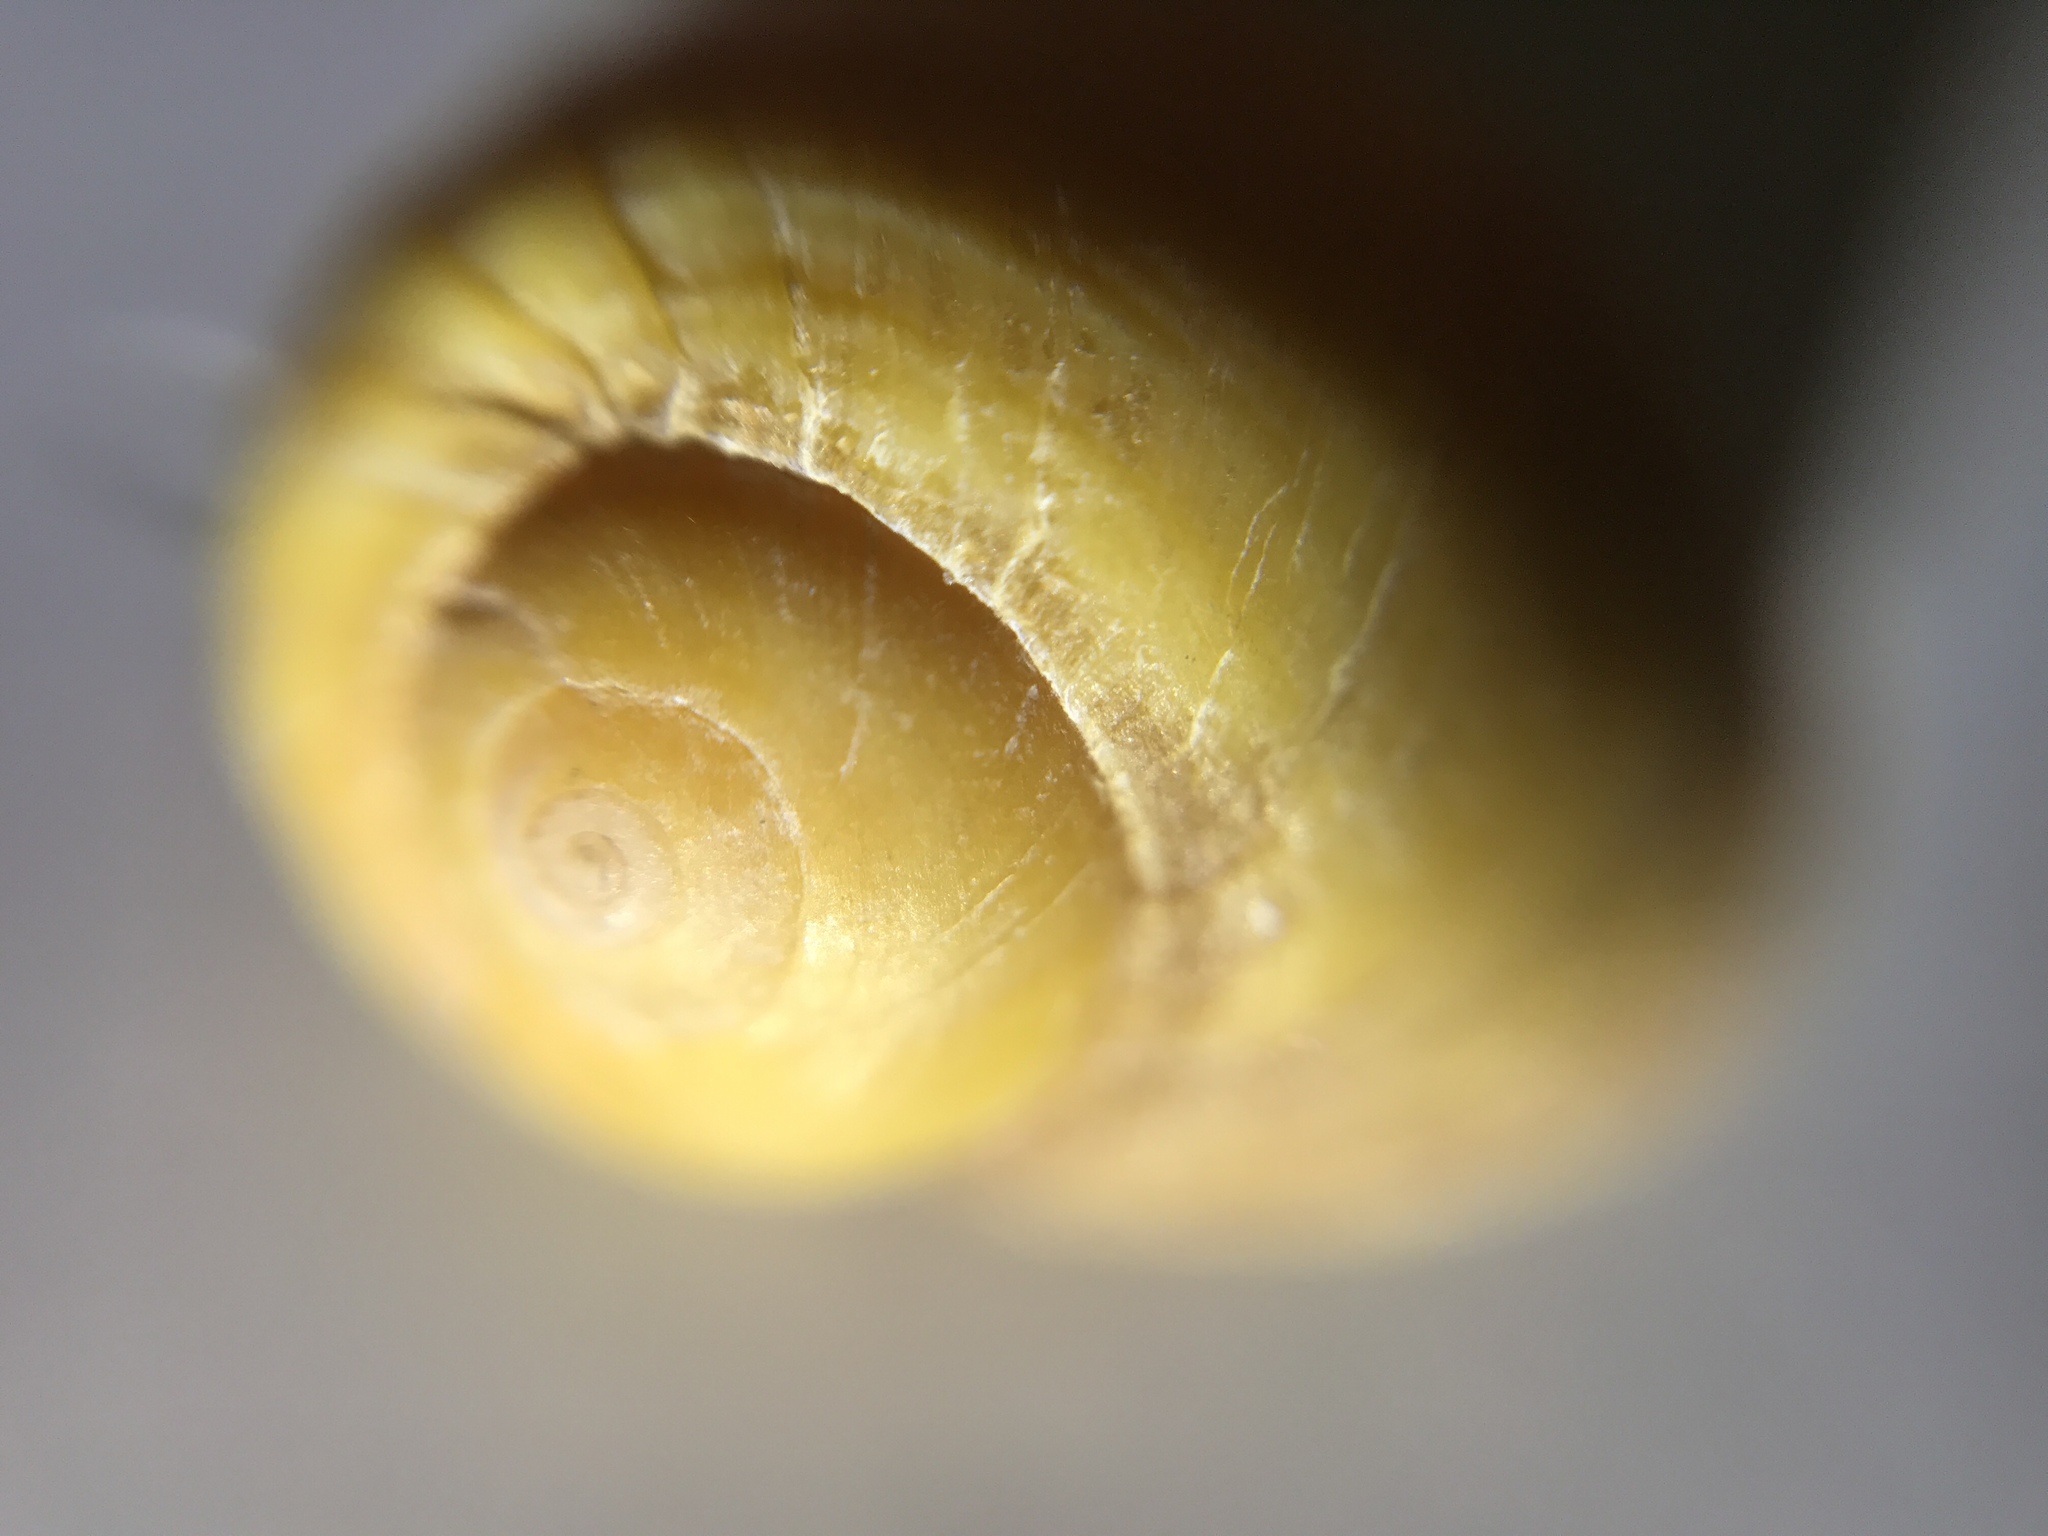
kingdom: Animalia
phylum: Mollusca
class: Gastropoda
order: Littorinimorpha
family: Littorinidae
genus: Littorina
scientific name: Littorina obtusata
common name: Flat periwinkle
